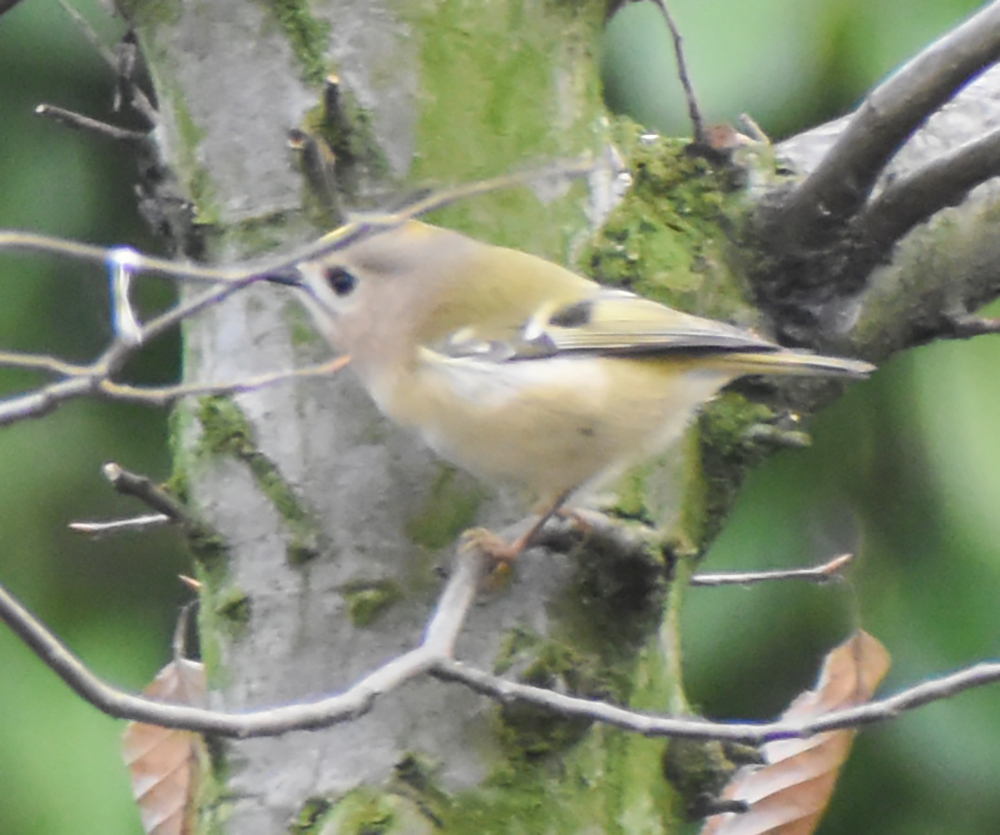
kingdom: Animalia
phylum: Chordata
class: Aves
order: Passeriformes
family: Regulidae
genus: Regulus
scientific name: Regulus regulus
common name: Goldcrest
